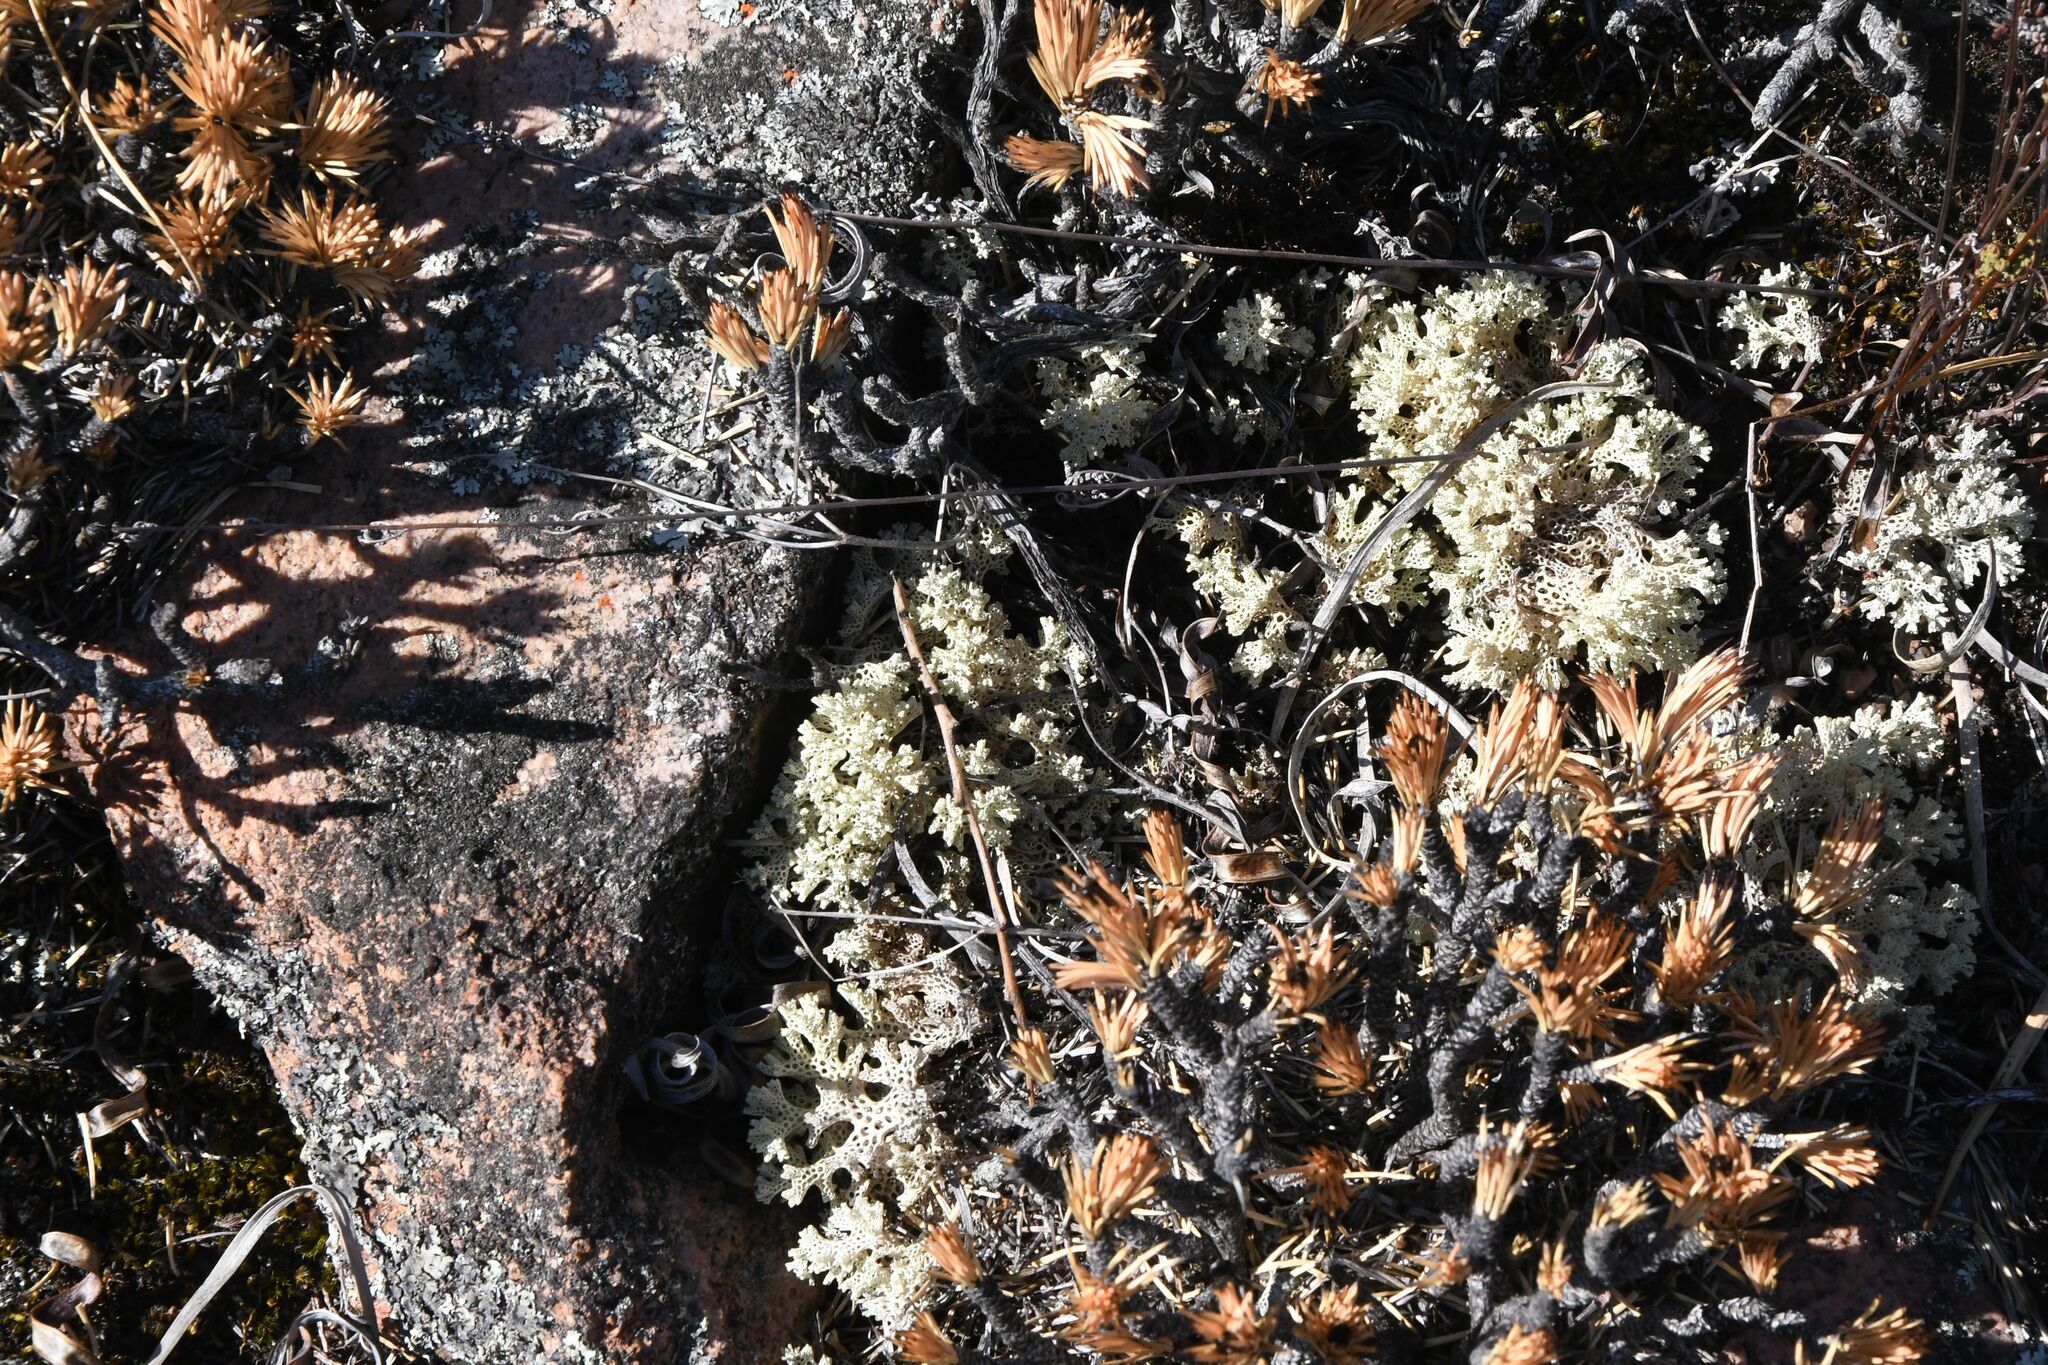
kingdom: Fungi
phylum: Ascomycota
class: Lecanoromycetes
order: Lecanorales
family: Cladoniaceae
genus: Pulchrocladia
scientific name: Pulchrocladia ferdinandii
